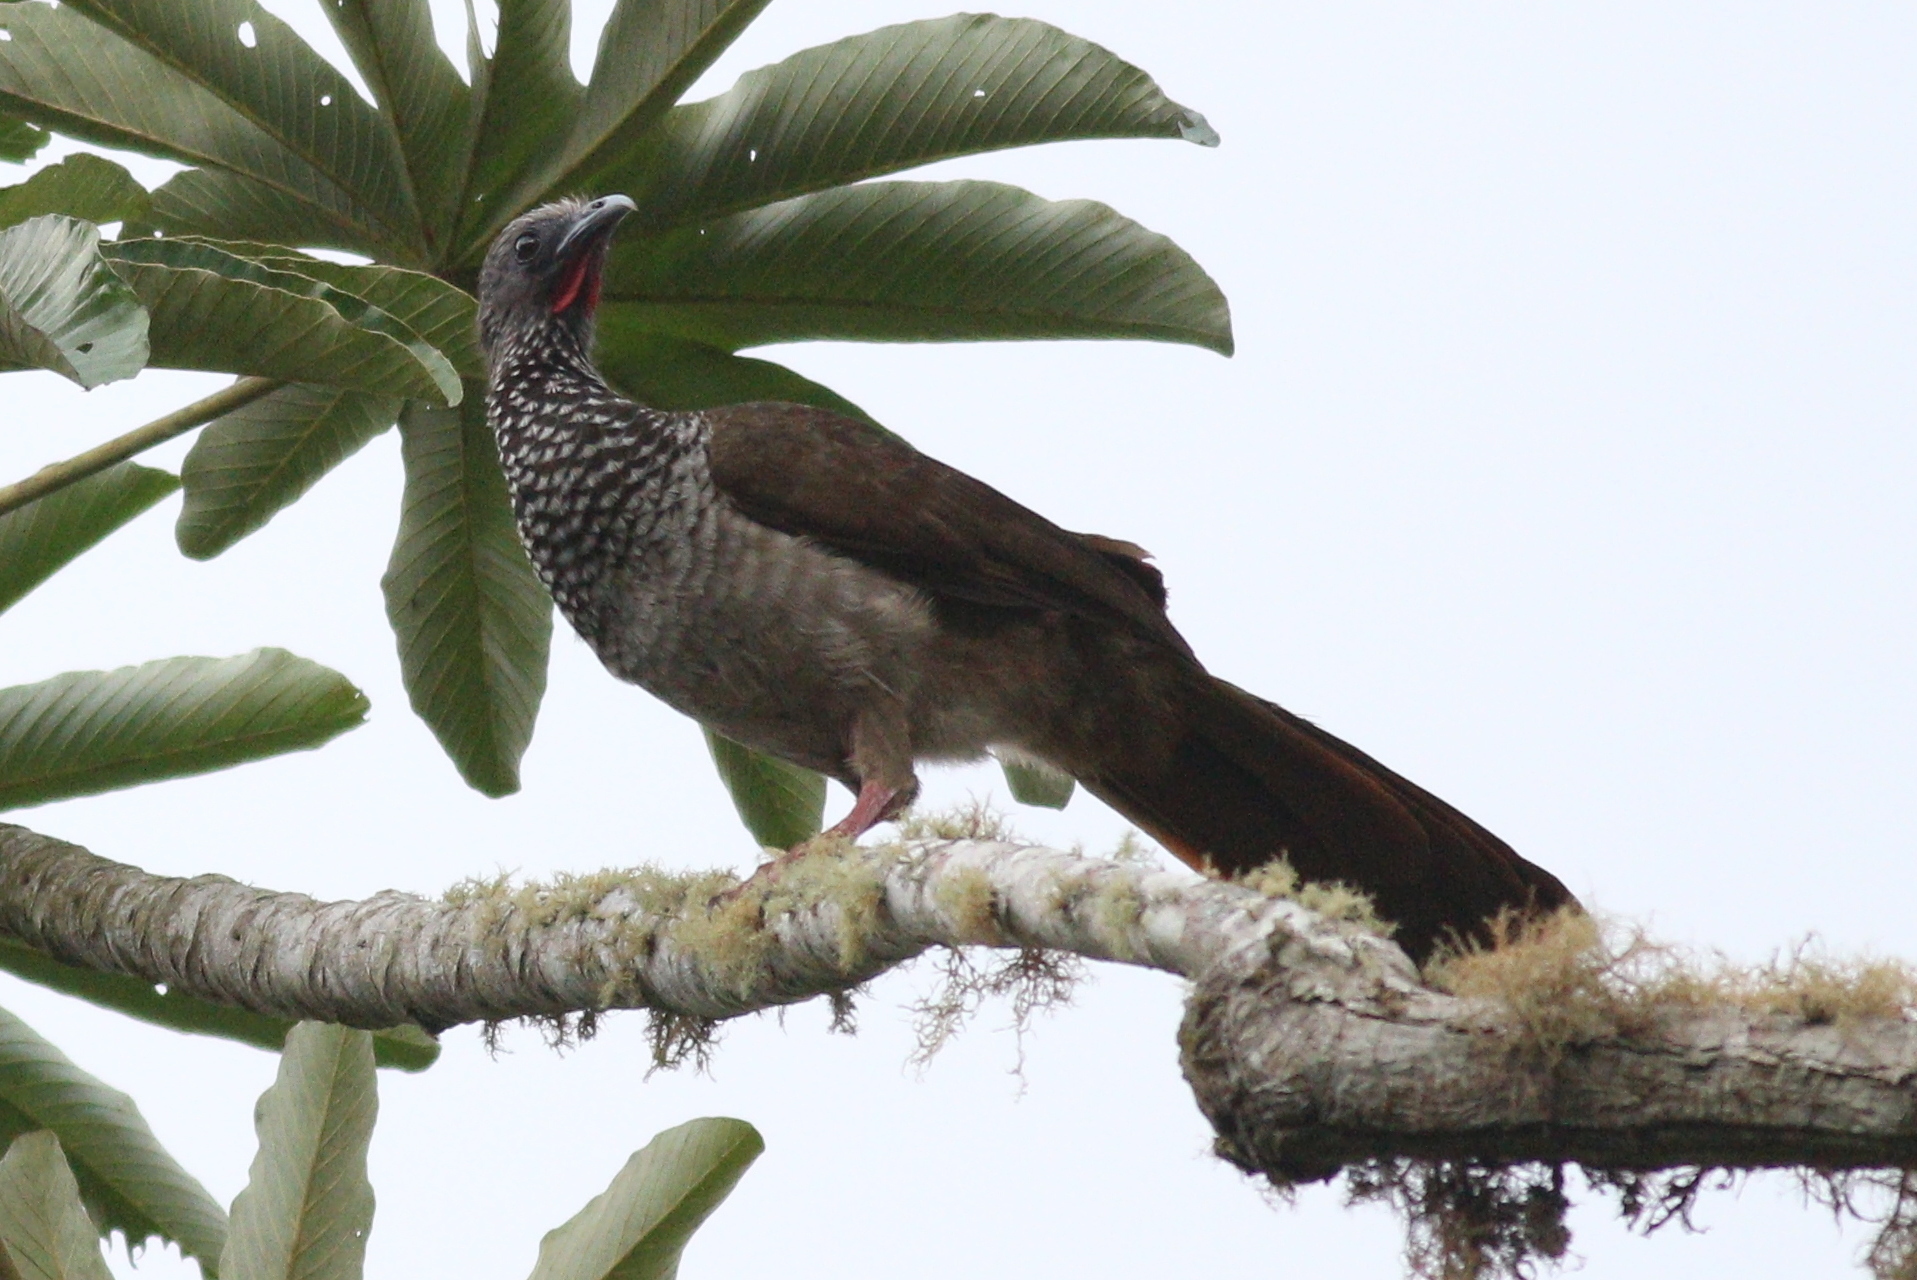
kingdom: Animalia
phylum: Chordata
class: Aves
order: Galliformes
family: Cracidae
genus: Ortalis
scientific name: Ortalis guttata
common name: Speckled chachalaca
